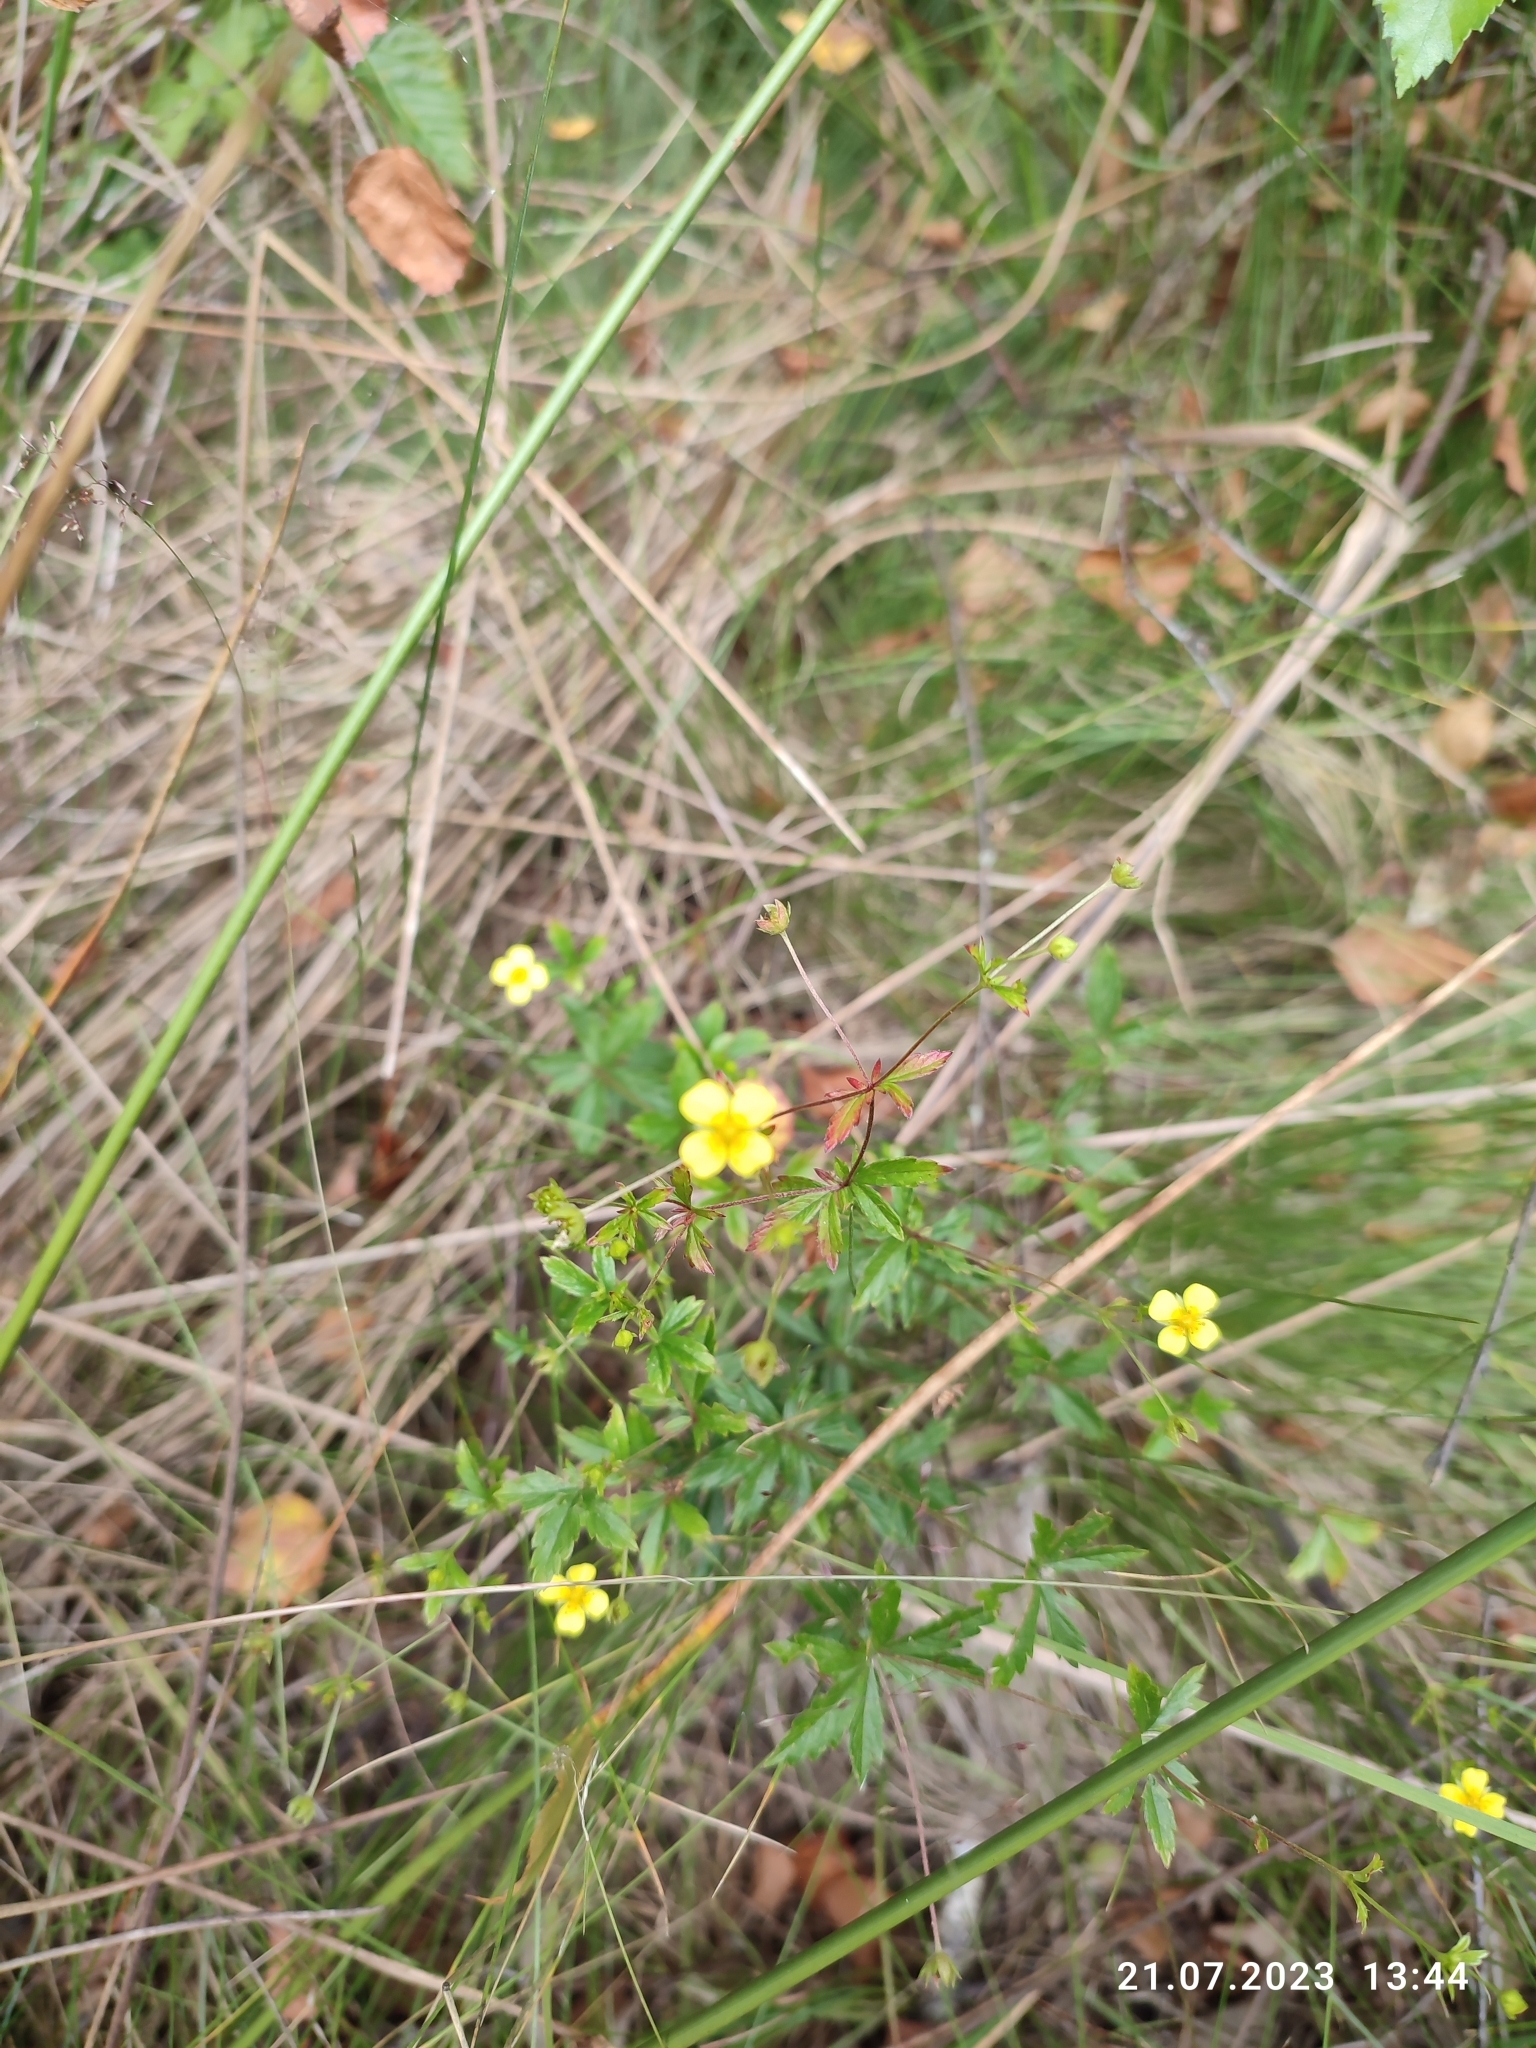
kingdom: Plantae
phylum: Tracheophyta
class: Magnoliopsida
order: Rosales
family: Rosaceae
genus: Potentilla
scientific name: Potentilla erecta
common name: Tormentil
